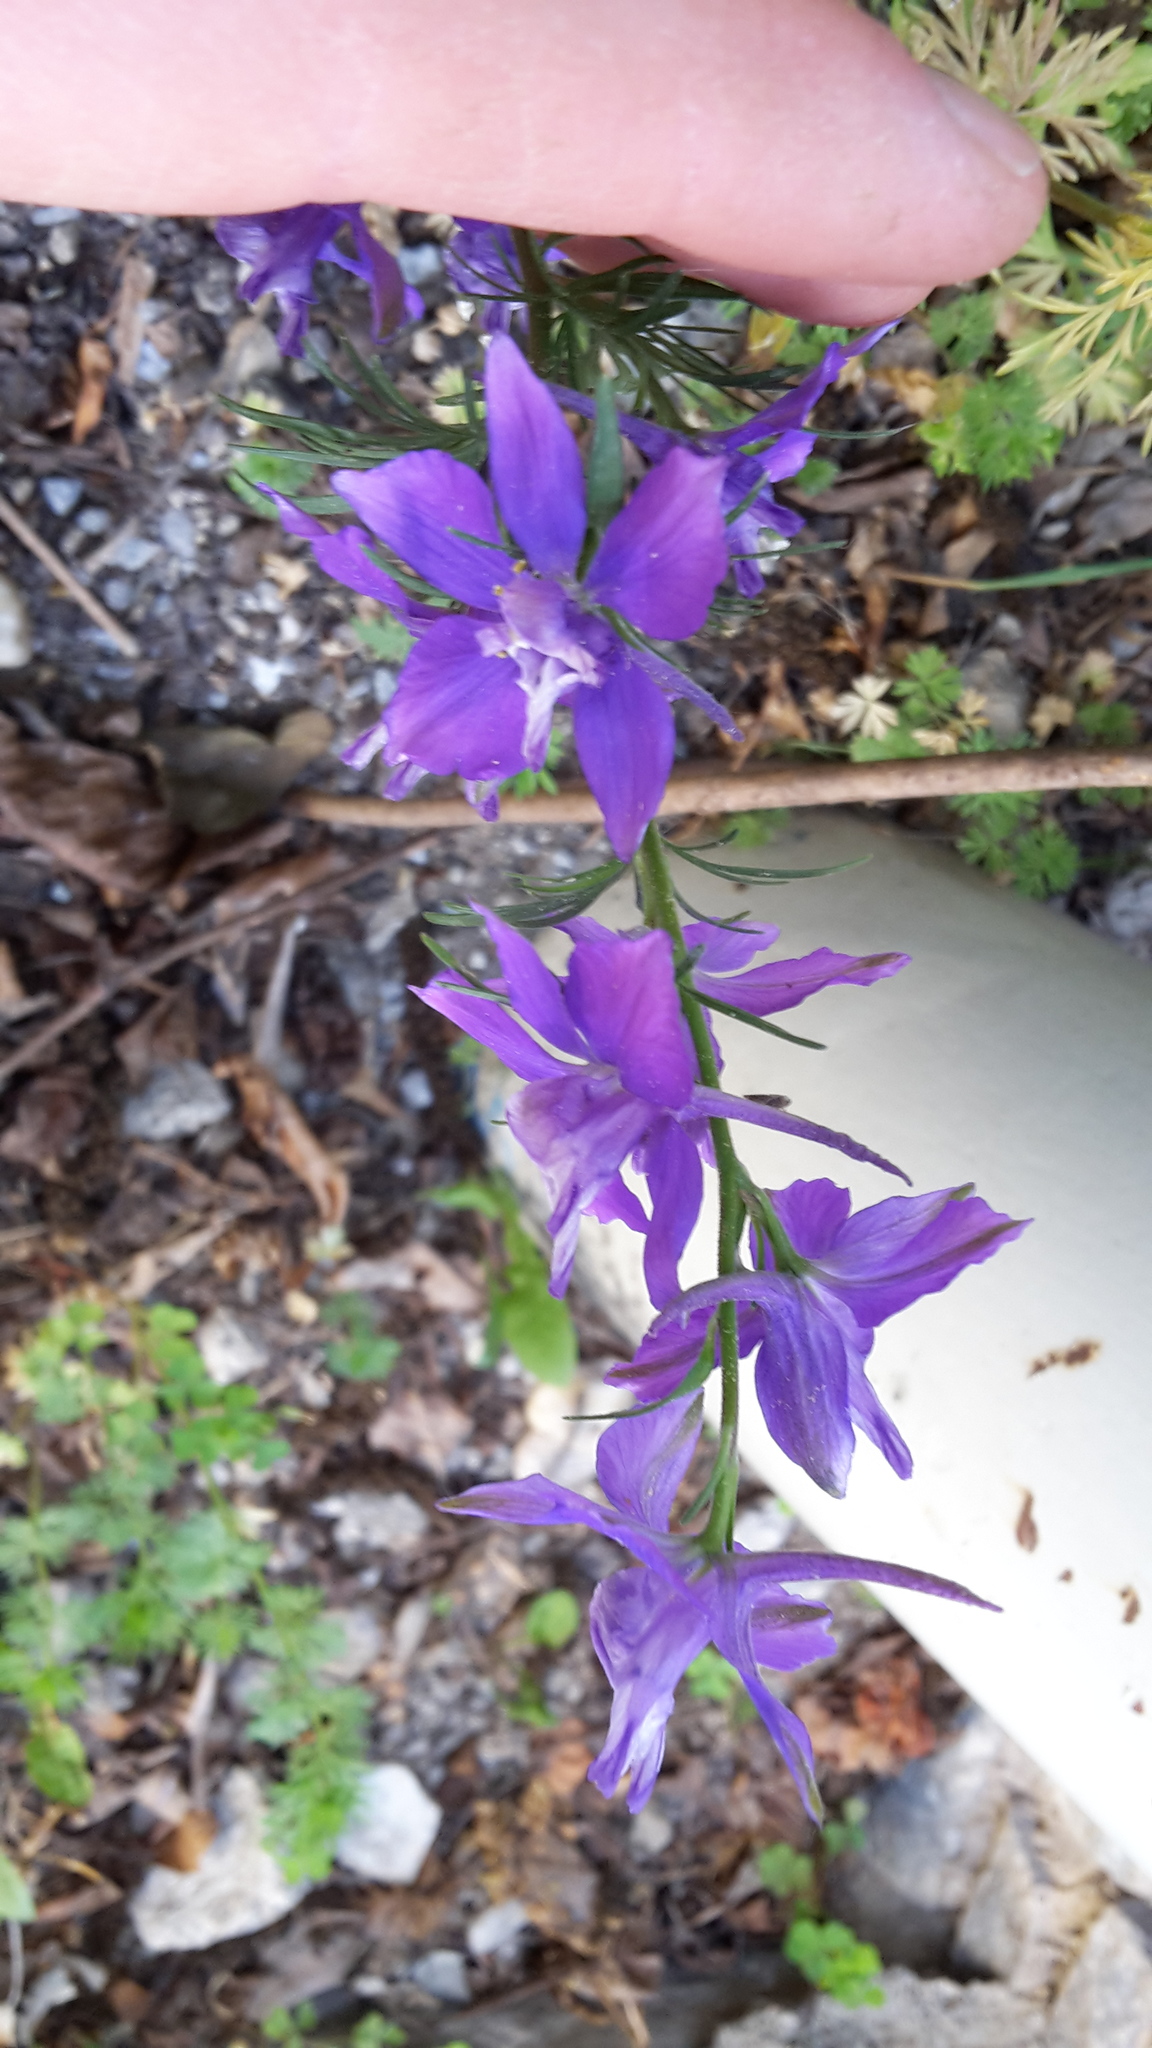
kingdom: Plantae
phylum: Tracheophyta
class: Magnoliopsida
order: Ranunculales
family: Ranunculaceae
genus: Delphinium
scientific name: Delphinium ajacis
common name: Doubtful knight's-spur
